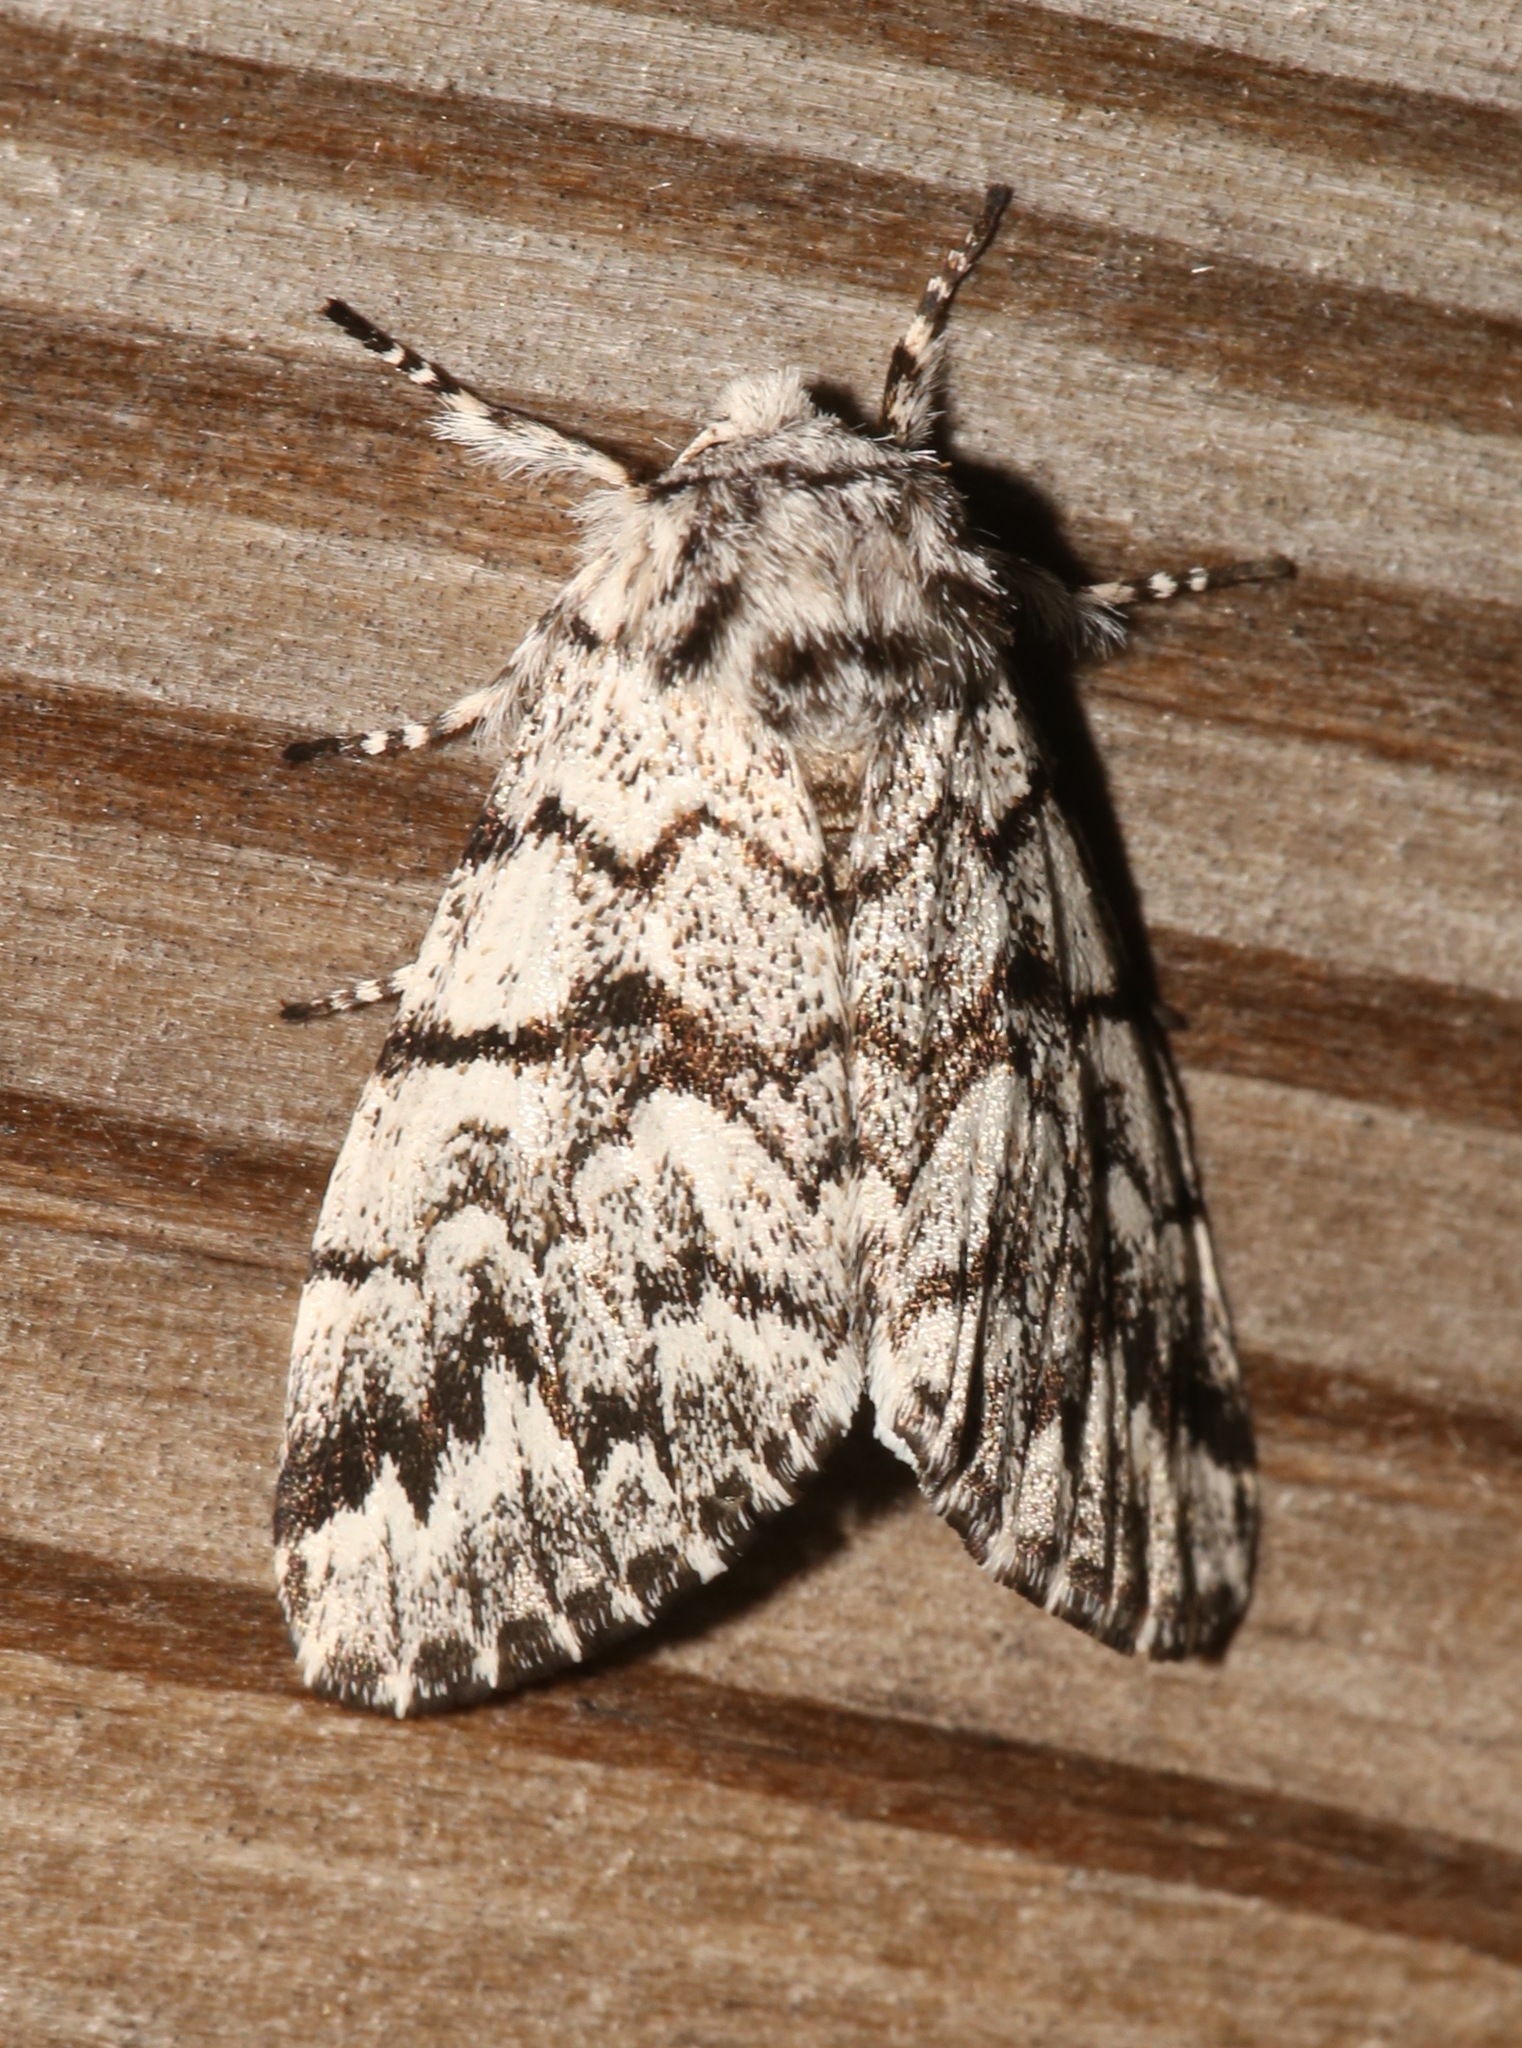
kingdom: Animalia
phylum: Arthropoda
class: Insecta
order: Lepidoptera
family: Noctuidae
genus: Panthea
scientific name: Panthea acronyctoides
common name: Black zigzag moth
